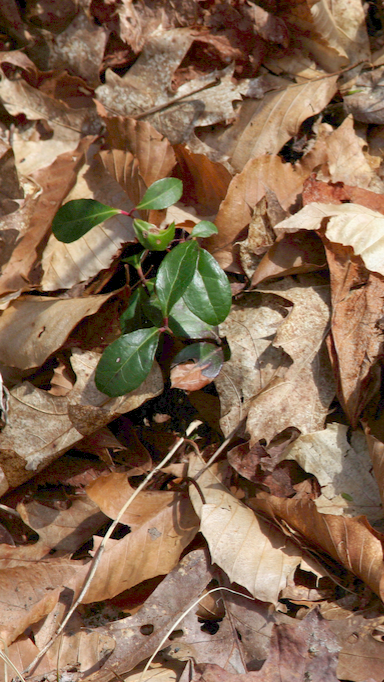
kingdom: Plantae
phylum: Tracheophyta
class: Magnoliopsida
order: Ericales
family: Ericaceae
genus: Gaultheria
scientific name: Gaultheria procumbens
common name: Checkerberry
